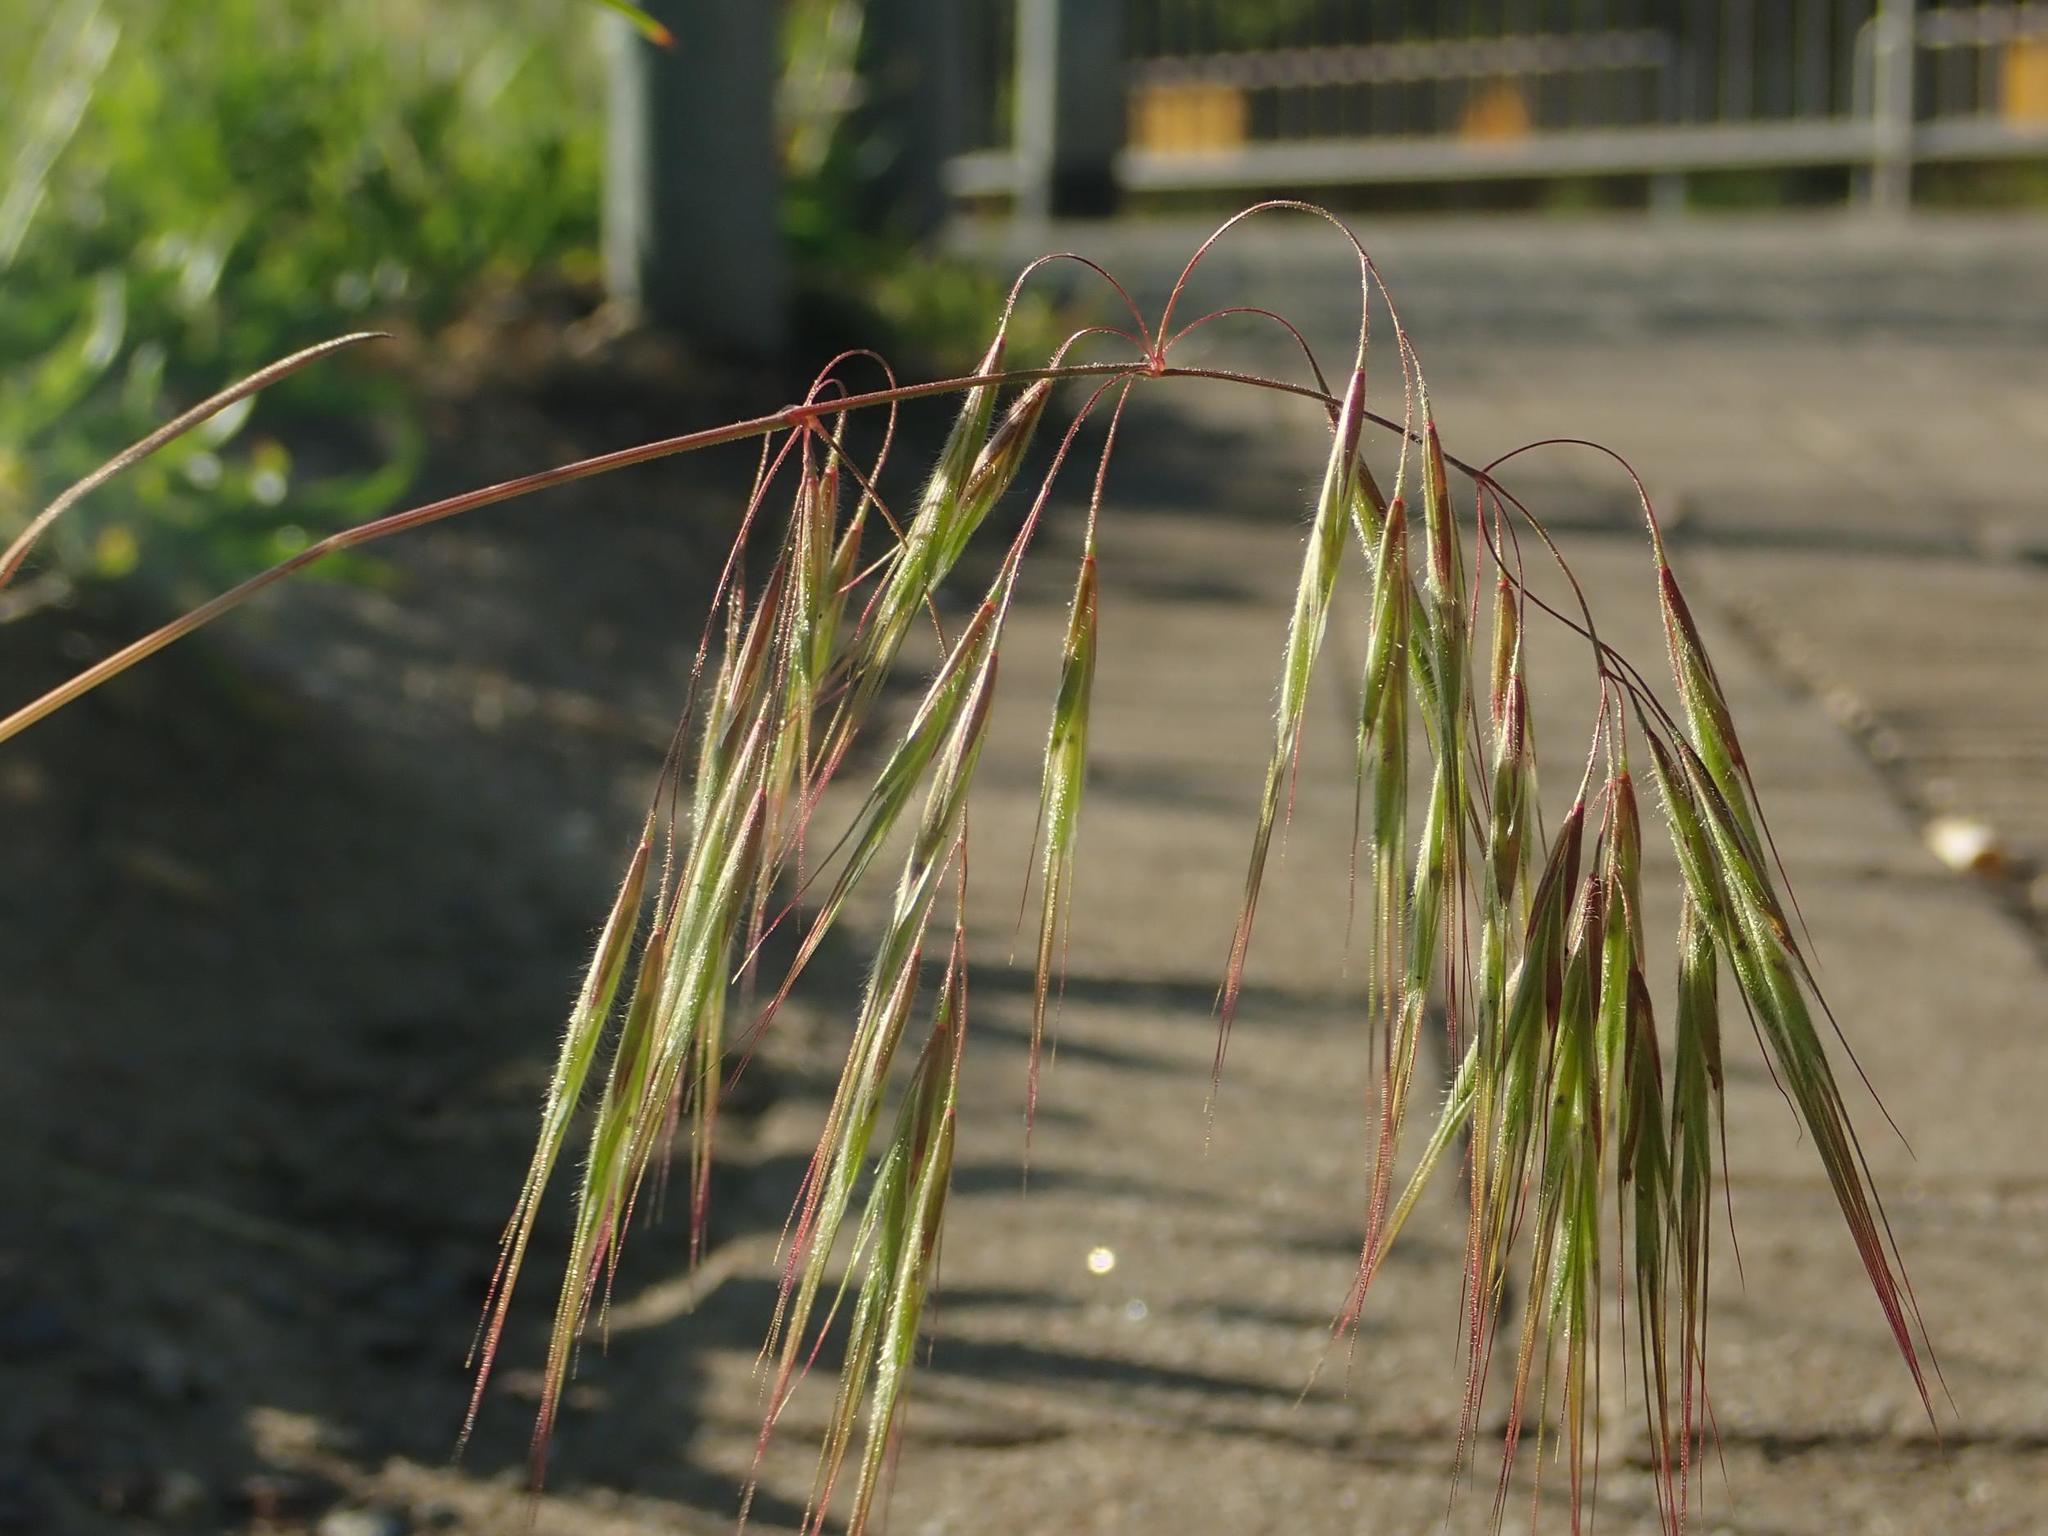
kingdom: Plantae
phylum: Tracheophyta
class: Liliopsida
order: Poales
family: Poaceae
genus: Bromus
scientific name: Bromus tectorum
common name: Cheatgrass
